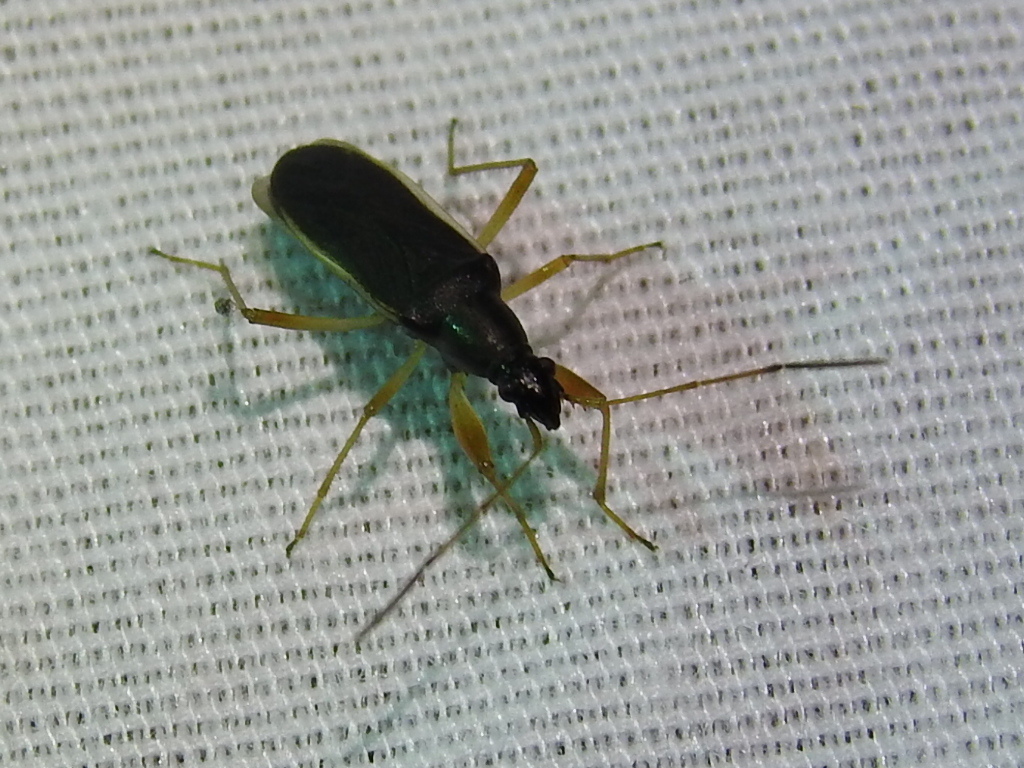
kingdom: Animalia
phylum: Arthropoda
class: Insecta
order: Hemiptera
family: Rhyparochromidae
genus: Cnemodus
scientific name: Cnemodus mavortius
